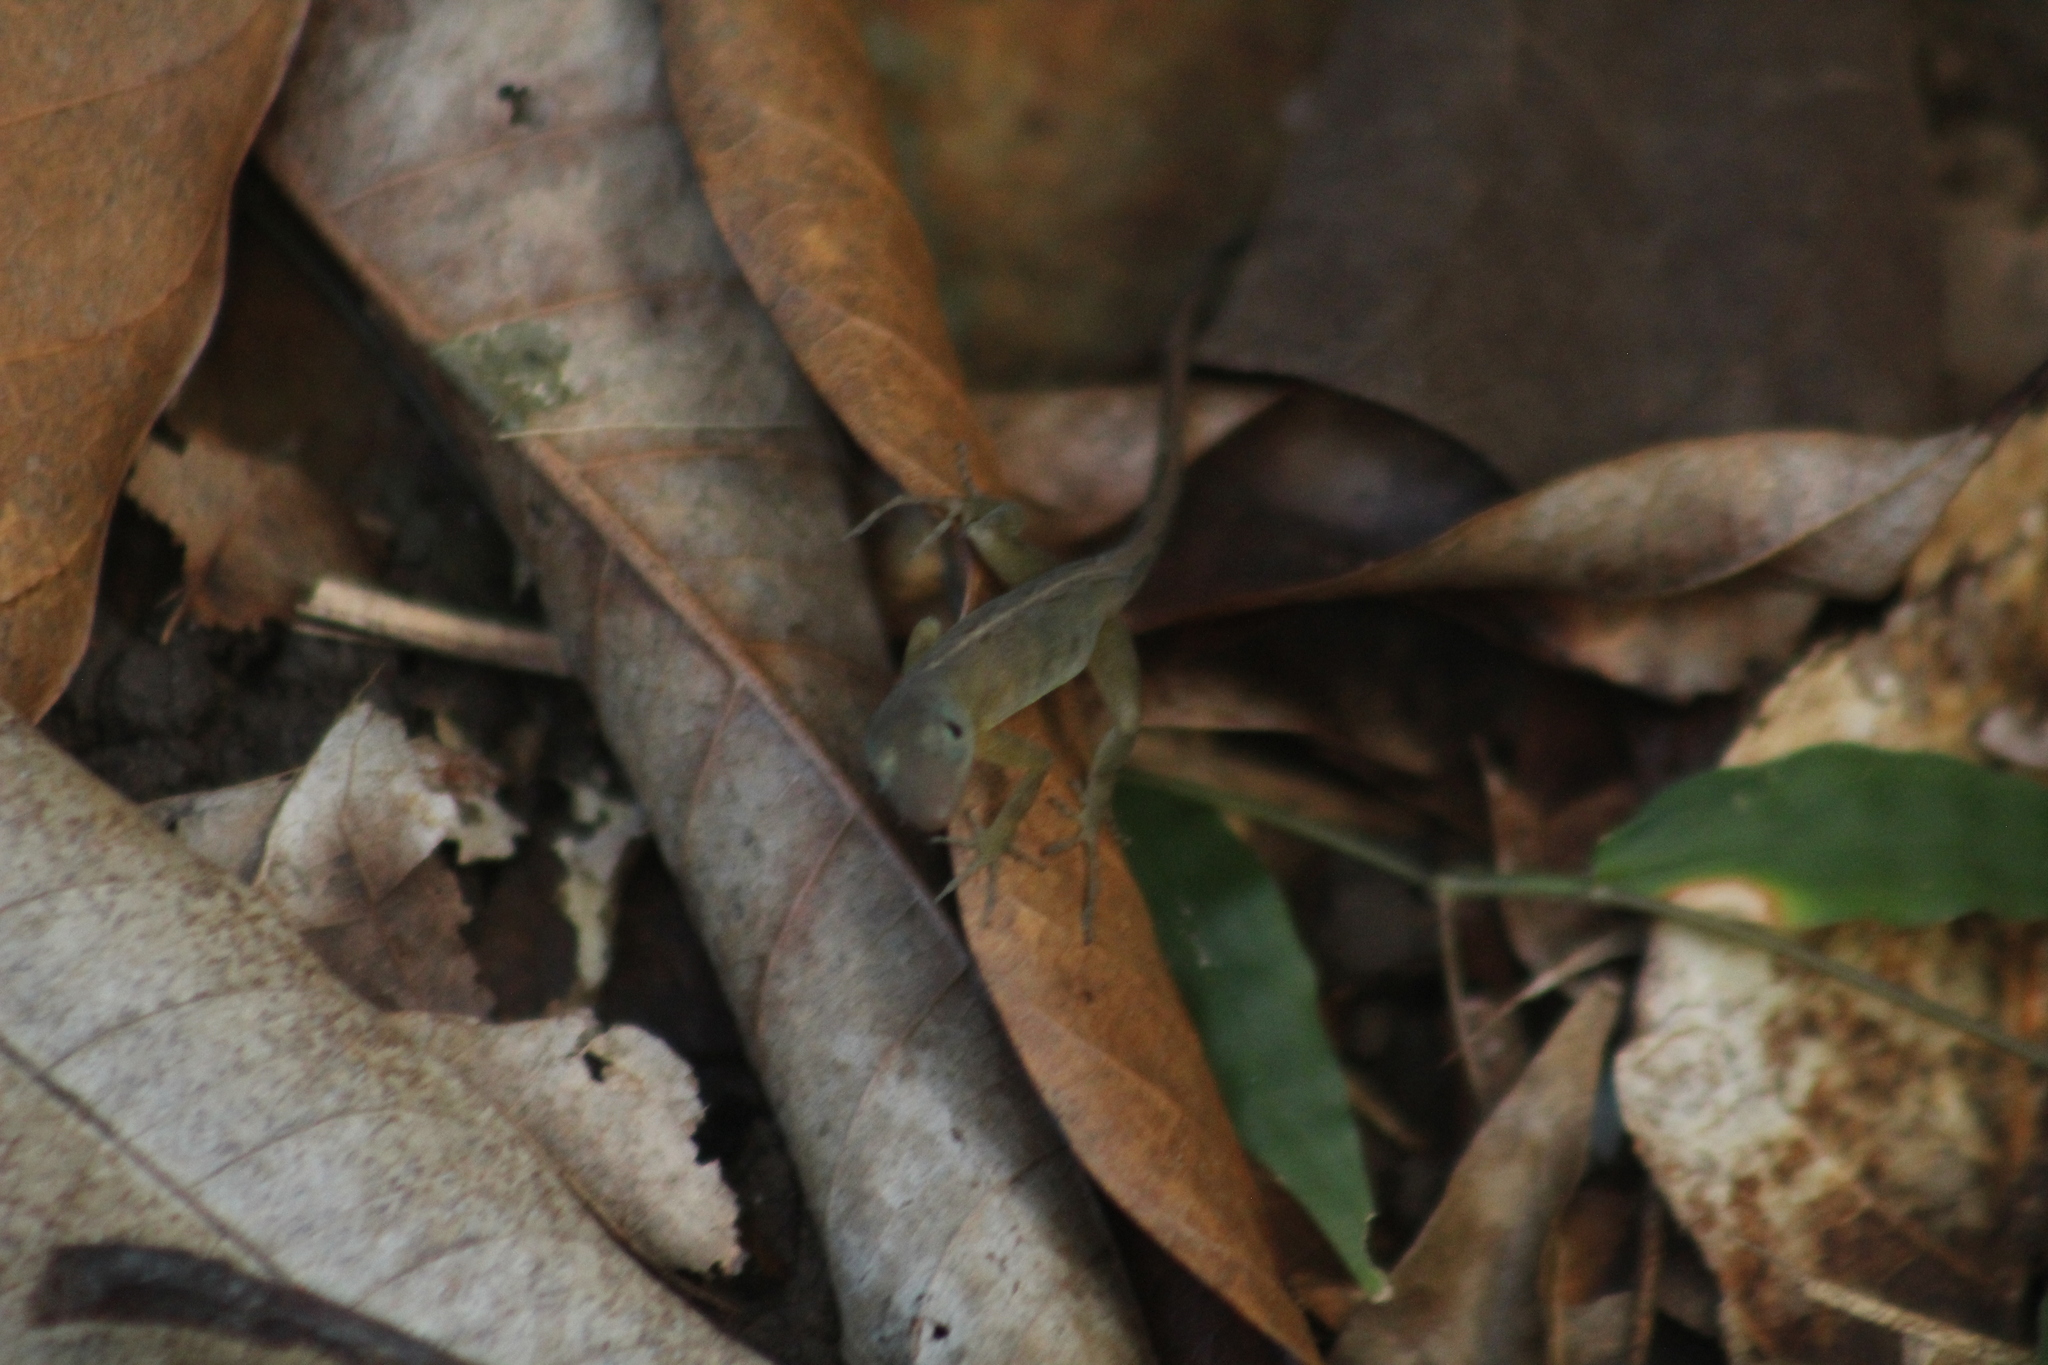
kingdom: Animalia
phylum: Chordata
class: Squamata
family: Dactyloidae
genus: Anolis
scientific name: Anolis pogus
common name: Anguilla bank bush anole
